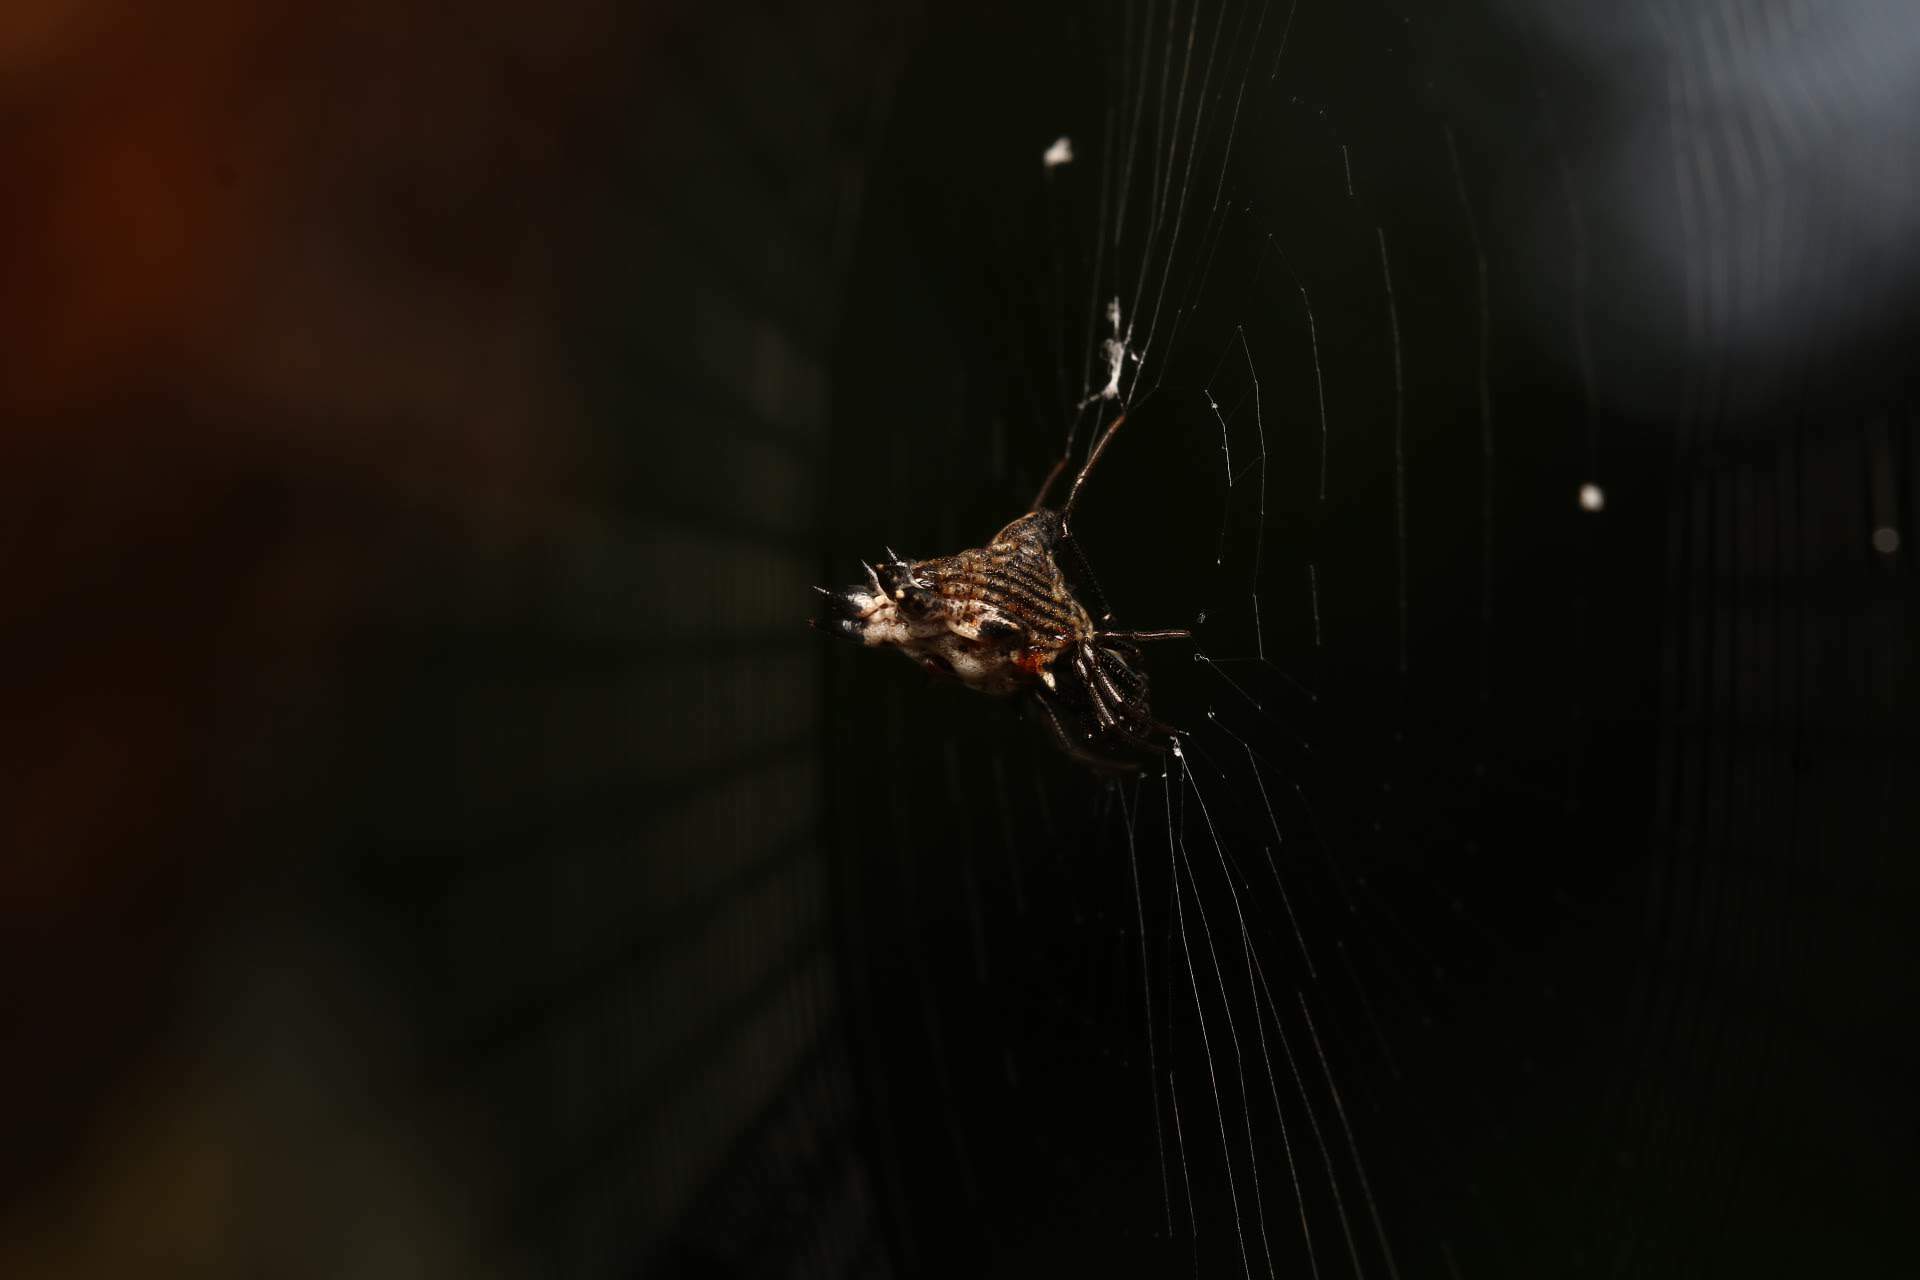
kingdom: Animalia
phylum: Arthropoda
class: Arachnida
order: Araneae
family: Araneidae
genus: Micrathena
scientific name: Micrathena gracilis
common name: Orb weavers
